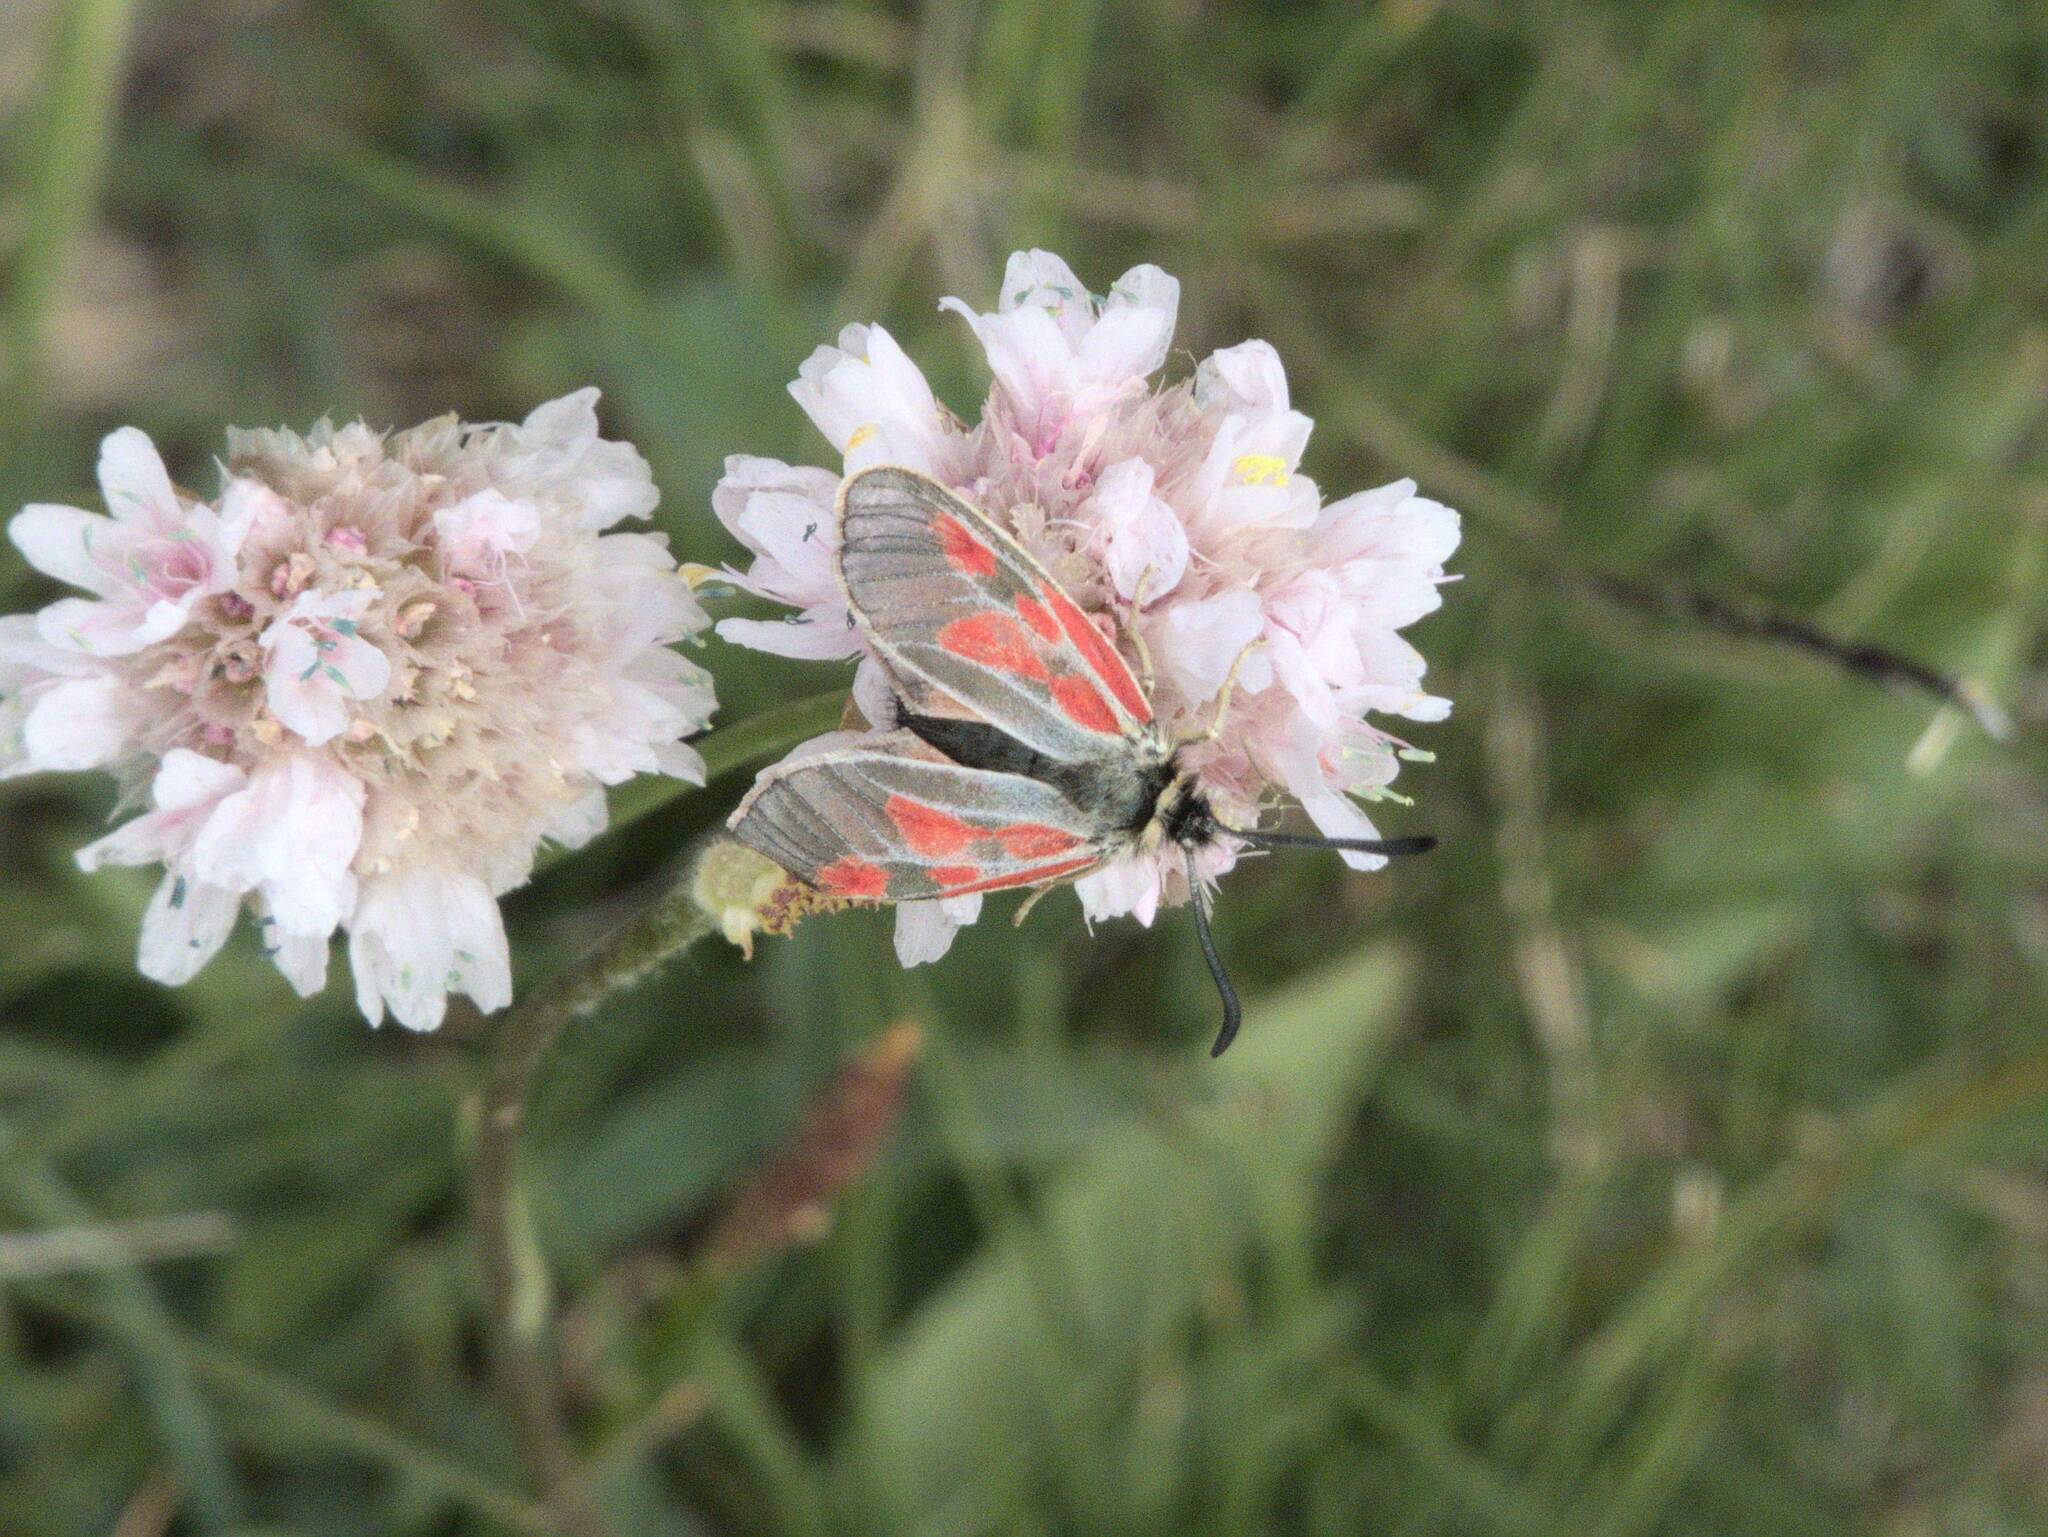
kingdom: Animalia
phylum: Arthropoda
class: Insecta
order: Lepidoptera
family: Zygaenidae
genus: Zygaena
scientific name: Zygaena exulans
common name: Scotch burnet
